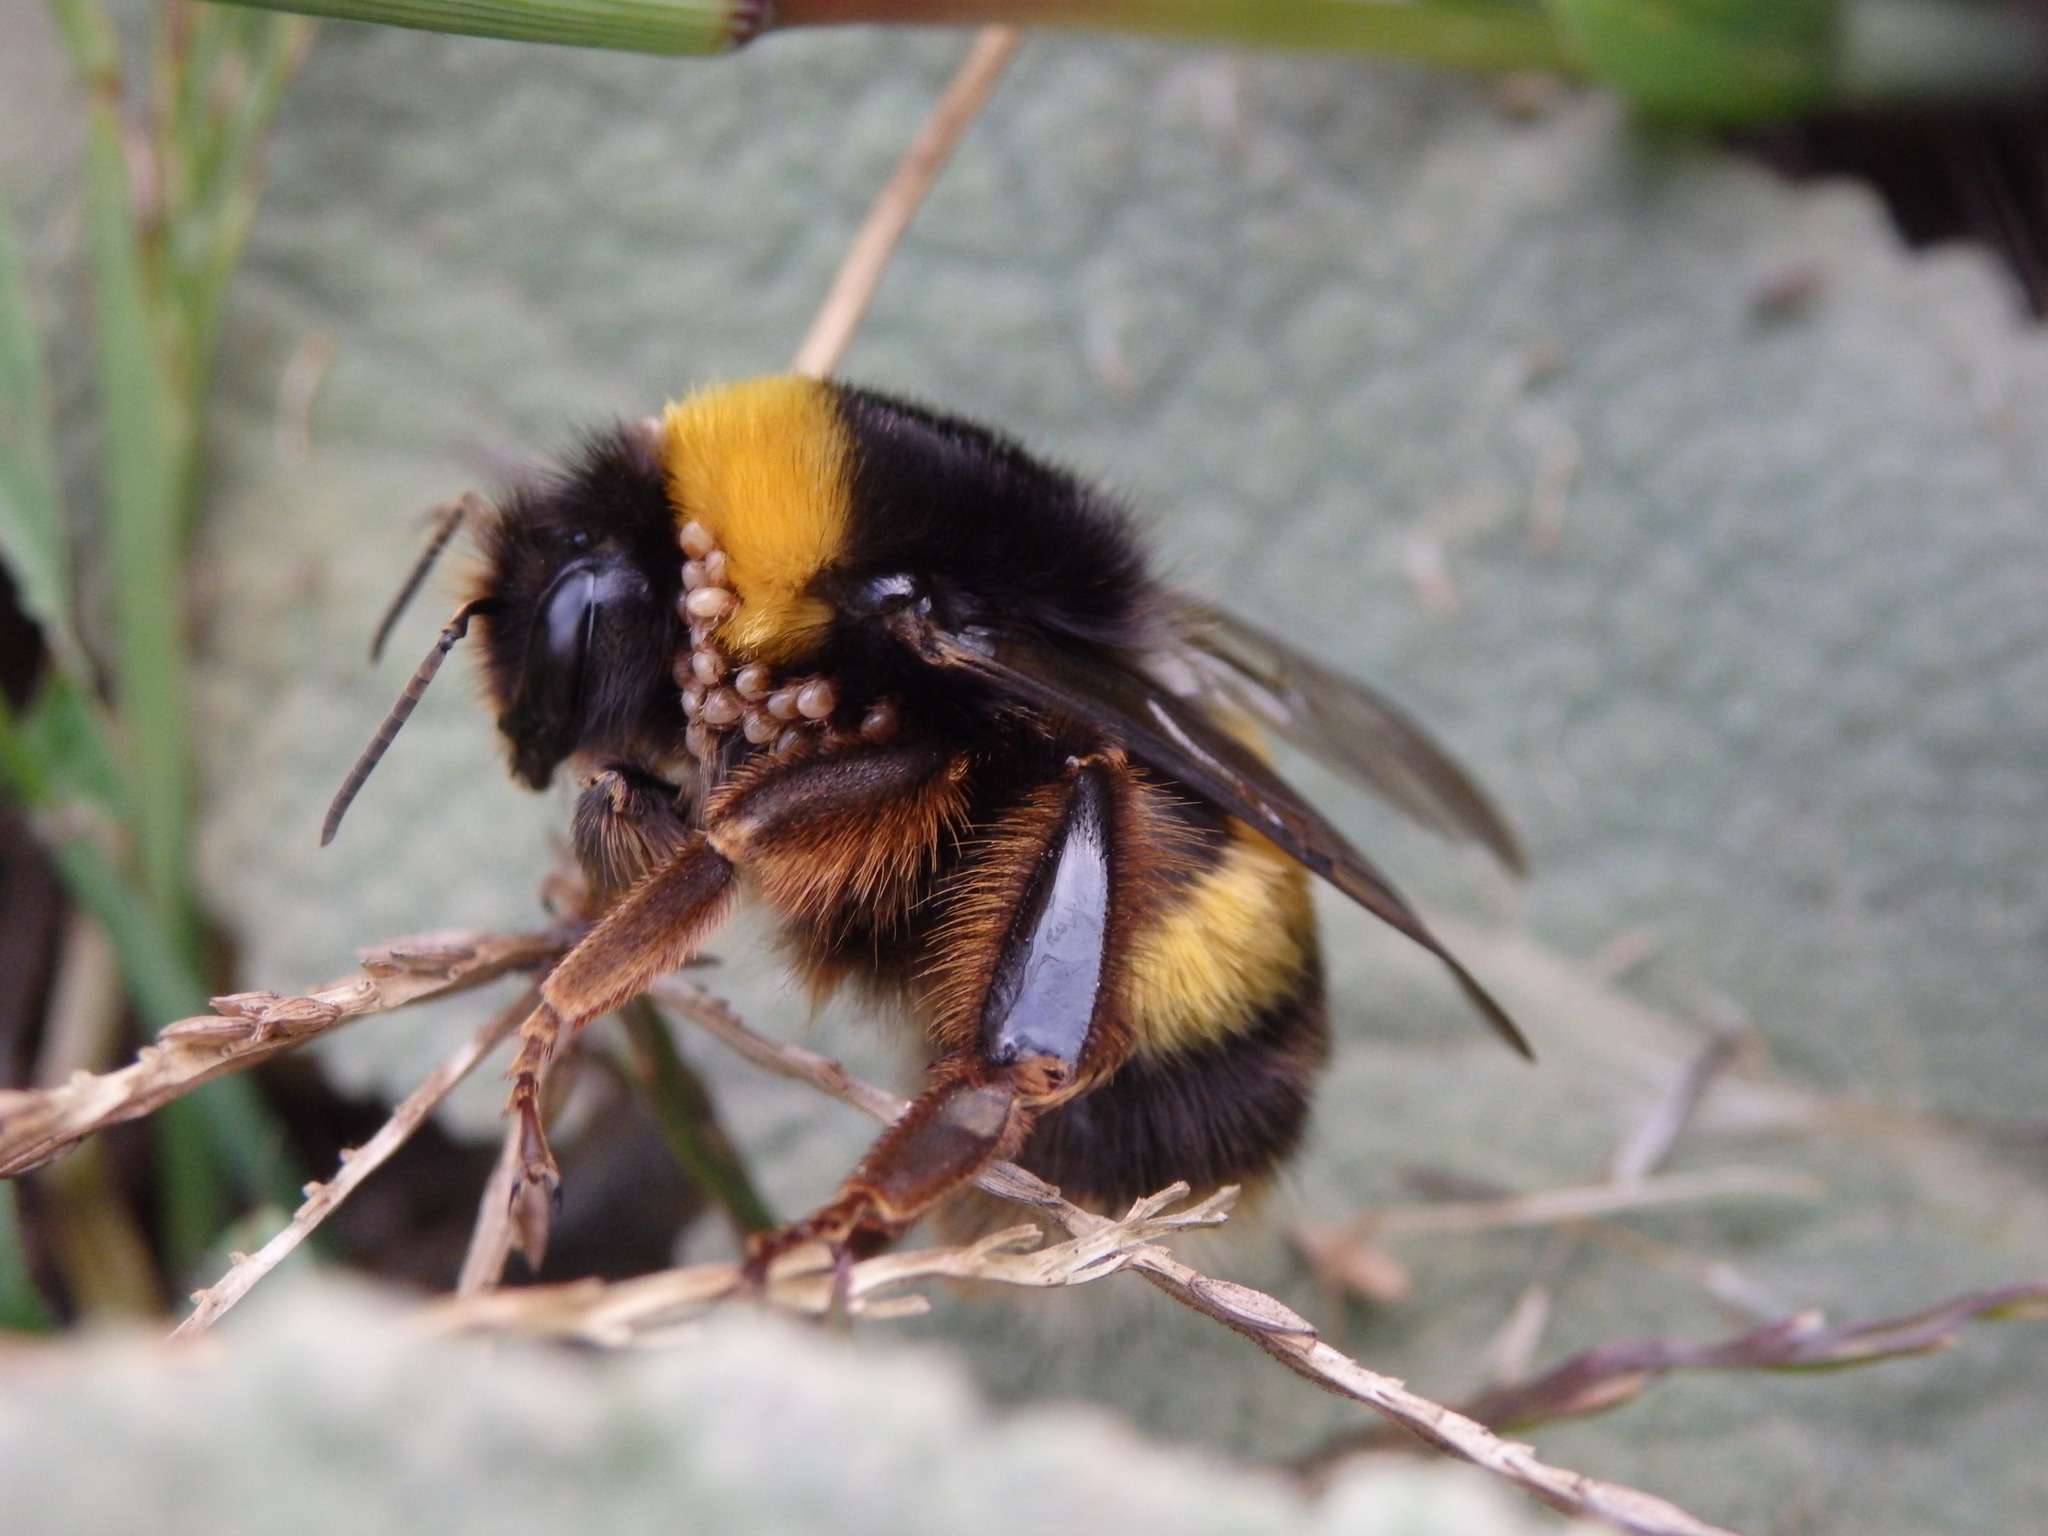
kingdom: Animalia
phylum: Arthropoda
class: Insecta
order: Hymenoptera
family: Apidae
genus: Bombus
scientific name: Bombus terrestris
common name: Buff-tailed bumblebee
